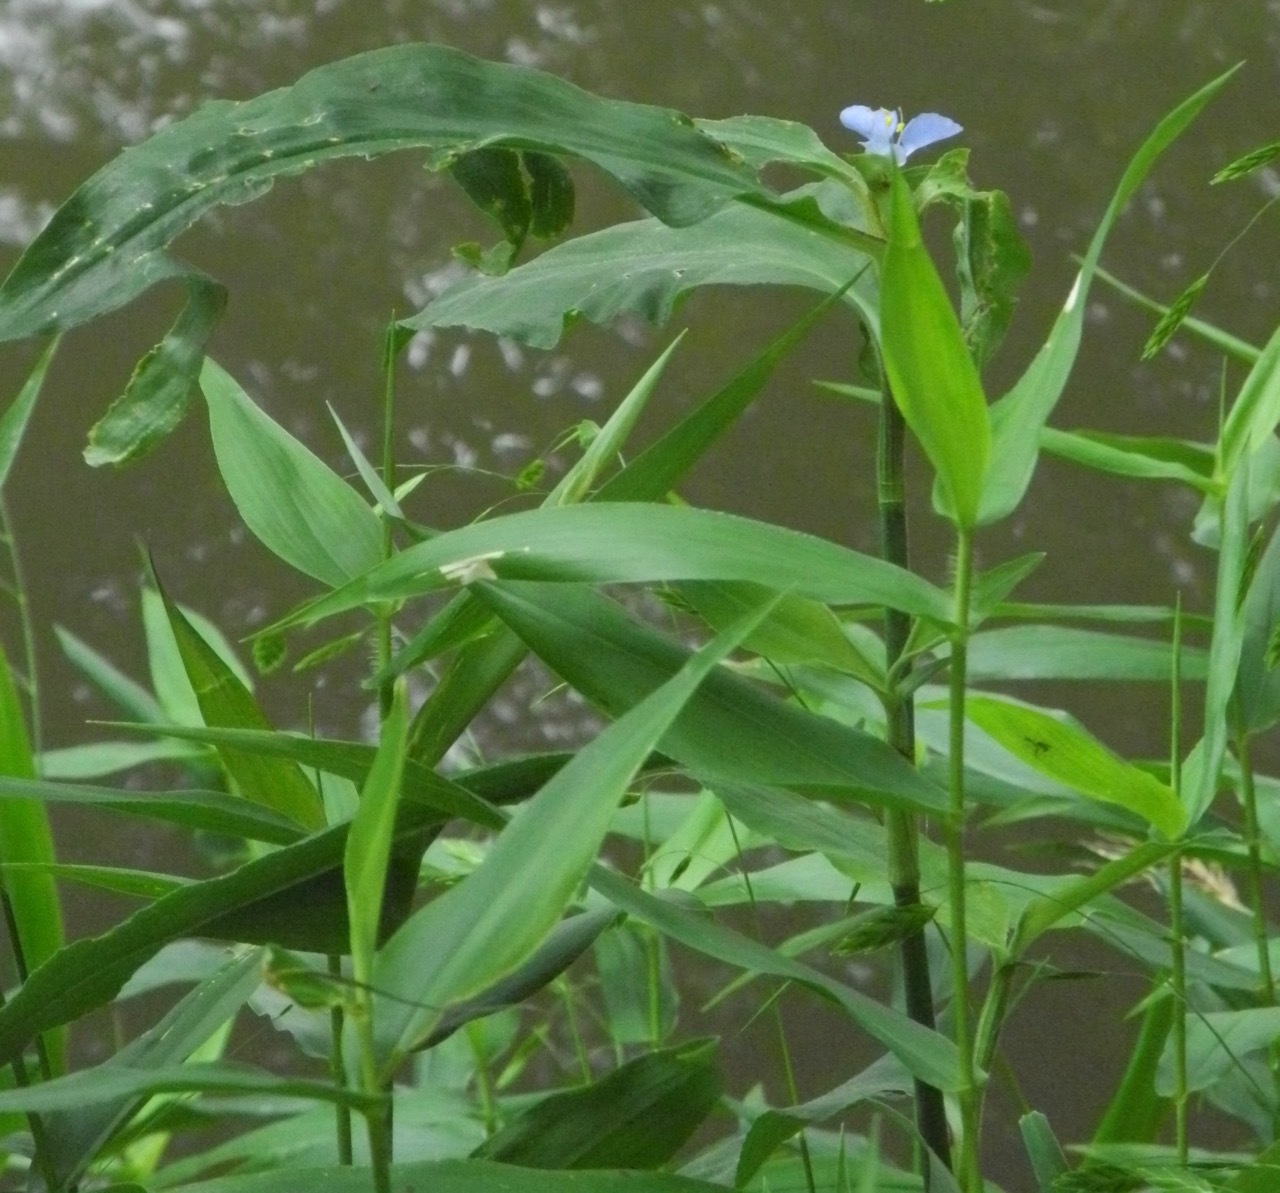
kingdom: Plantae
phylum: Tracheophyta
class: Liliopsida
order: Commelinales
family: Commelinaceae
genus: Commelina
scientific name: Commelina virginica
